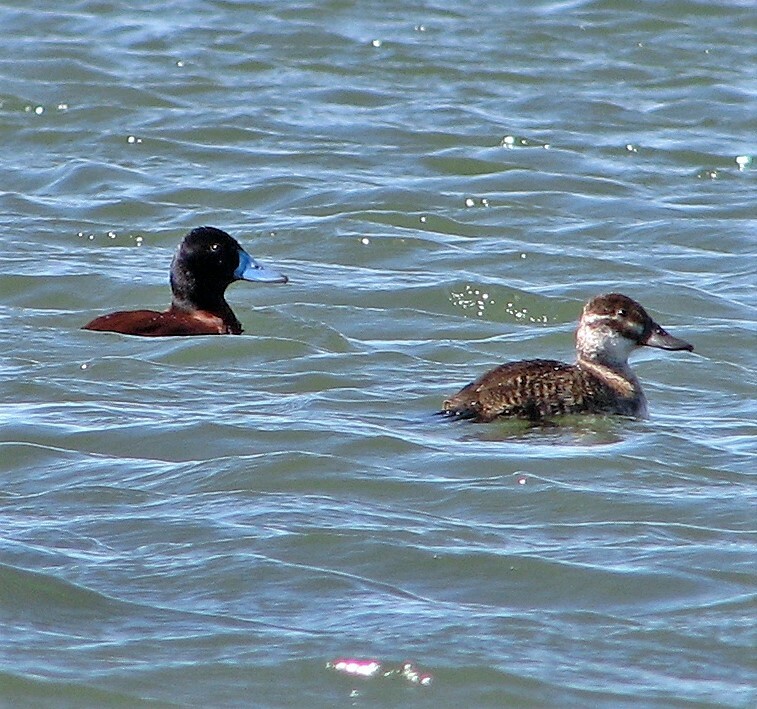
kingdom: Animalia
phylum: Chordata
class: Aves
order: Anseriformes
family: Anatidae
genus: Oxyura
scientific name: Oxyura vittata
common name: Lake duck
